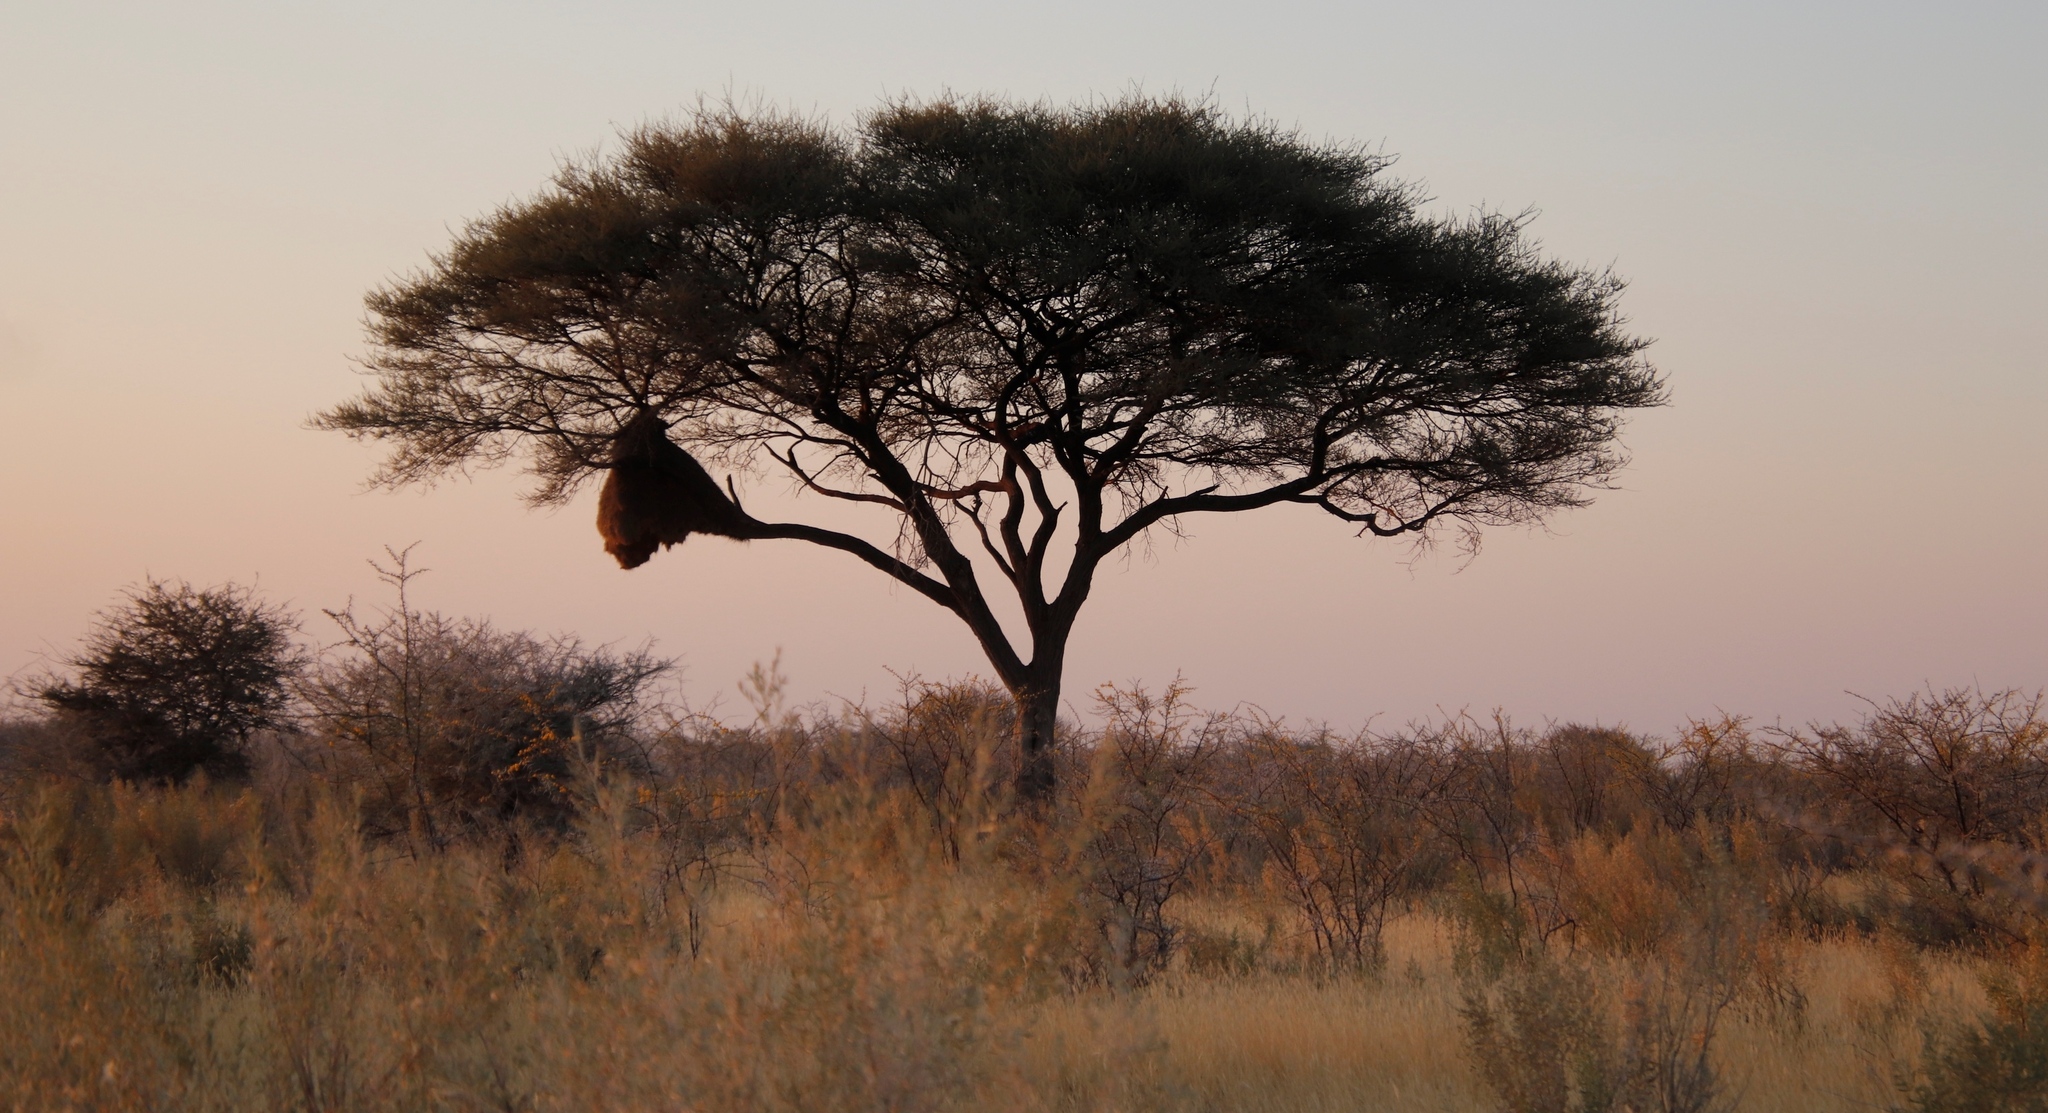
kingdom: Animalia
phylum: Chordata
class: Aves
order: Passeriformes
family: Passeridae
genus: Philetairus
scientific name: Philetairus socius
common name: Sociable weaver
